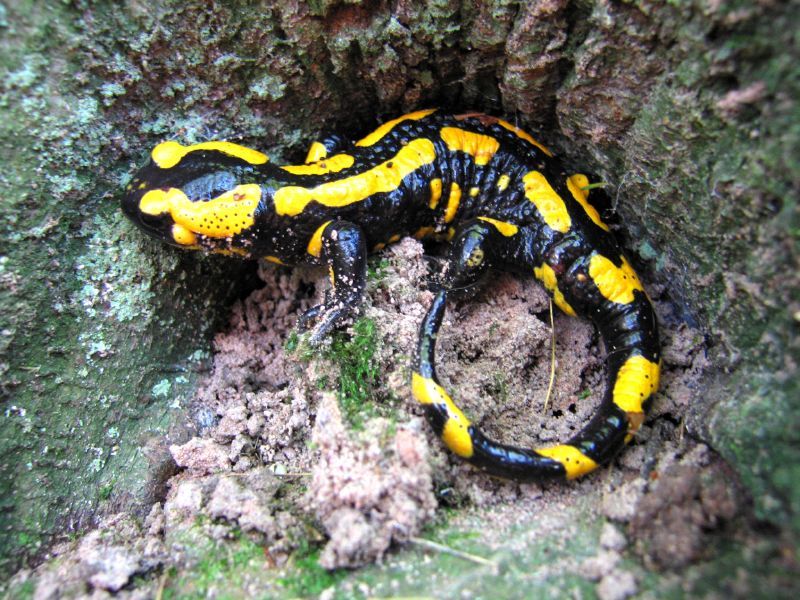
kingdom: Animalia
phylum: Chordata
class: Amphibia
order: Caudata
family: Salamandridae
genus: Salamandra
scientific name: Salamandra salamandra
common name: Fire salamander
